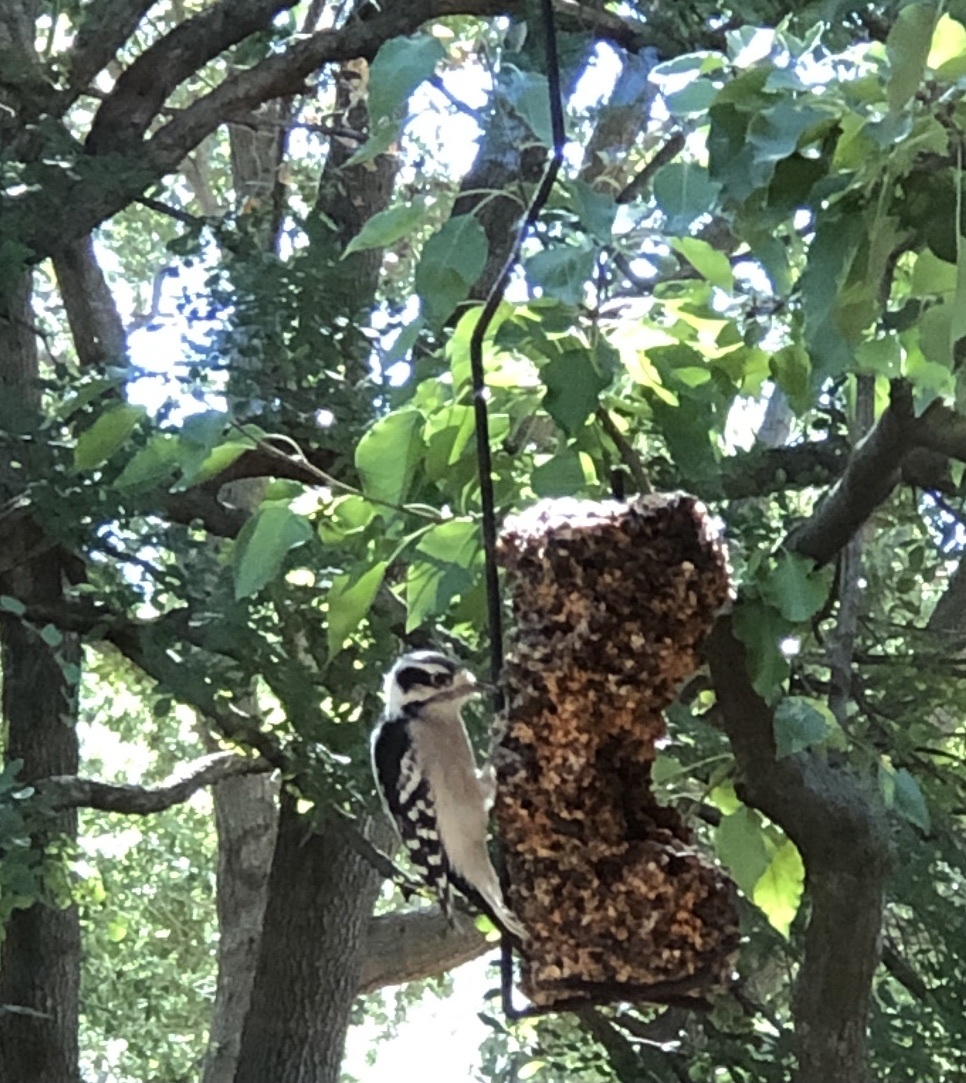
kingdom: Animalia
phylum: Chordata
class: Aves
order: Piciformes
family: Picidae
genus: Dryobates
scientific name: Dryobates pubescens
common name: Downy woodpecker
